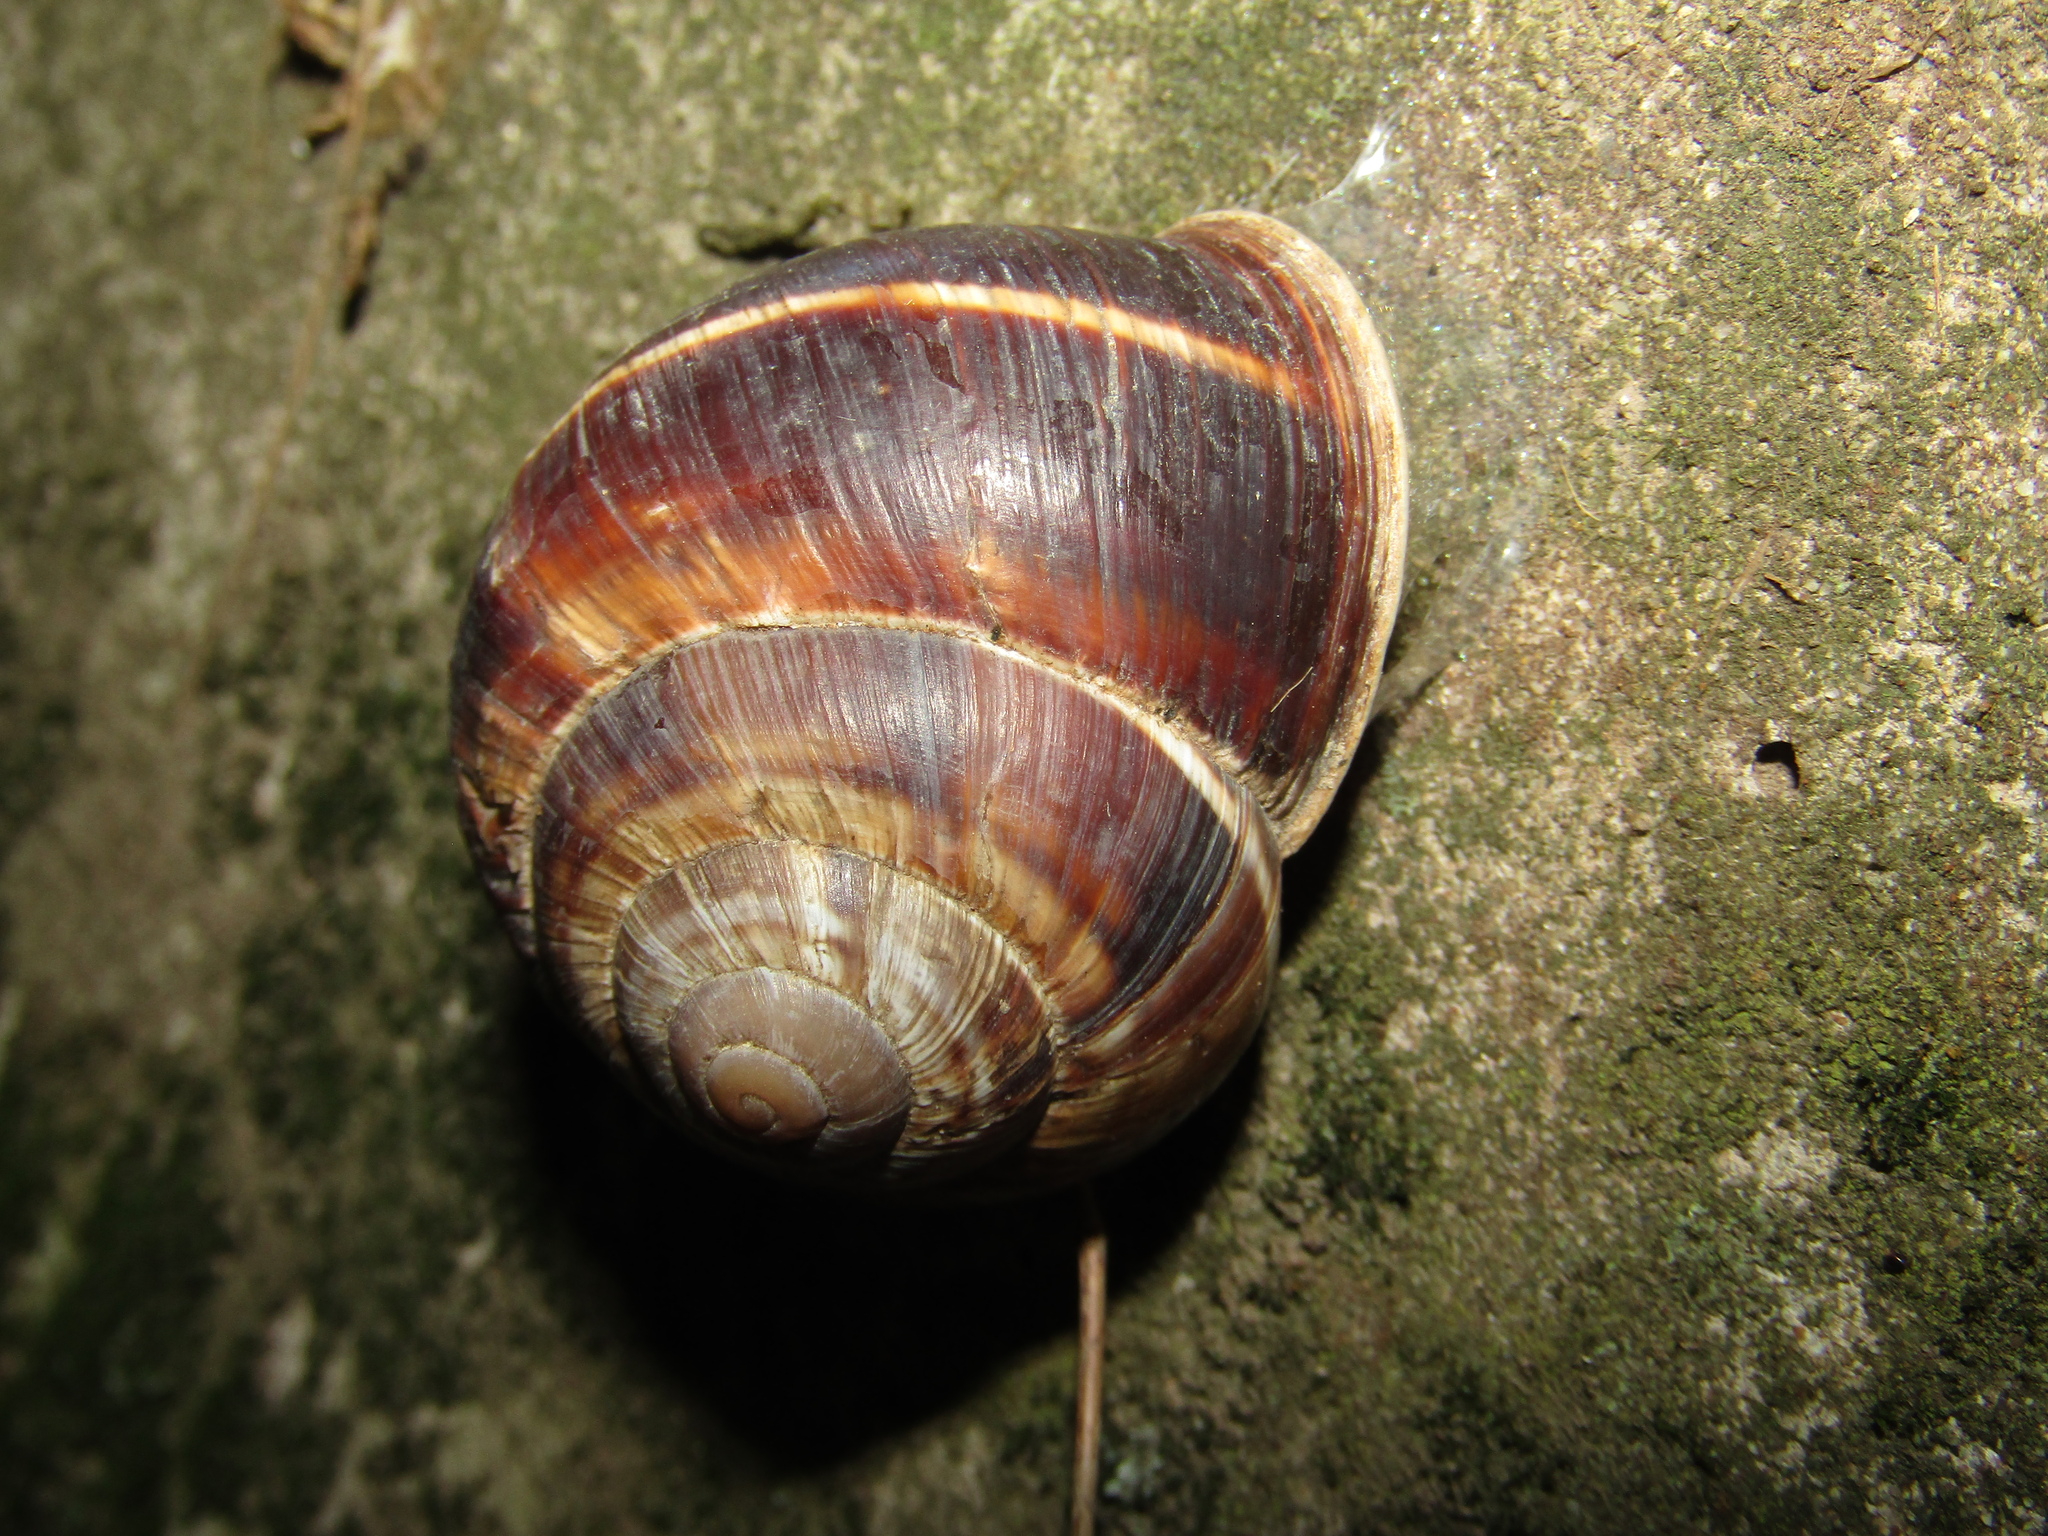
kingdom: Animalia
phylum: Mollusca
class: Gastropoda
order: Stylommatophora
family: Helicidae
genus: Helix
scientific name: Helix lucorum
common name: Turkish snail
